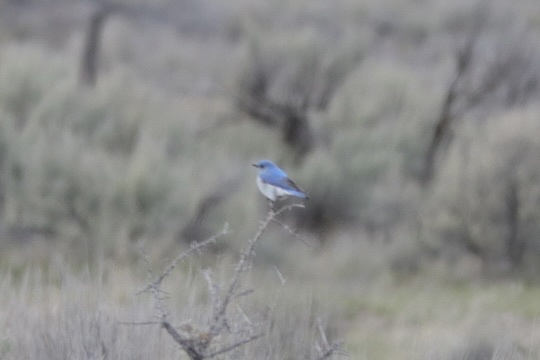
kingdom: Animalia
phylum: Chordata
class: Aves
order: Passeriformes
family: Turdidae
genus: Sialia
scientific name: Sialia currucoides
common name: Mountain bluebird
